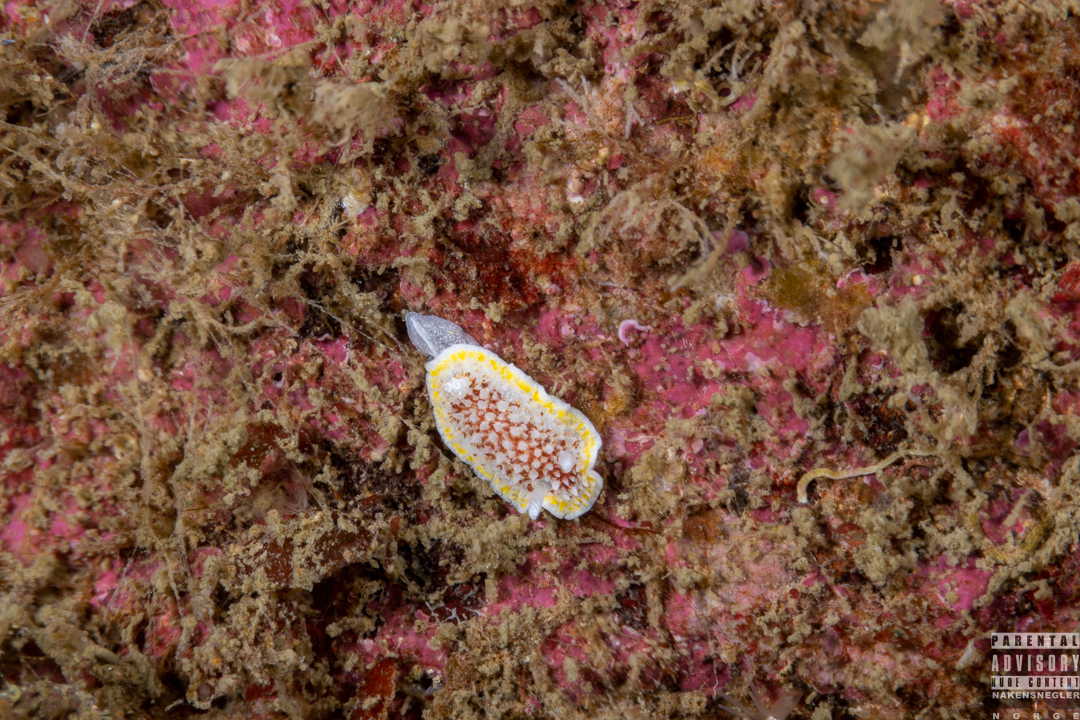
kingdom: Animalia
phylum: Mollusca
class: Gastropoda
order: Nudibranchia
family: Calycidorididae
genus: Diaphorodoris
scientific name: Diaphorodoris luteocincta
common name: Fried egg nudibranch
